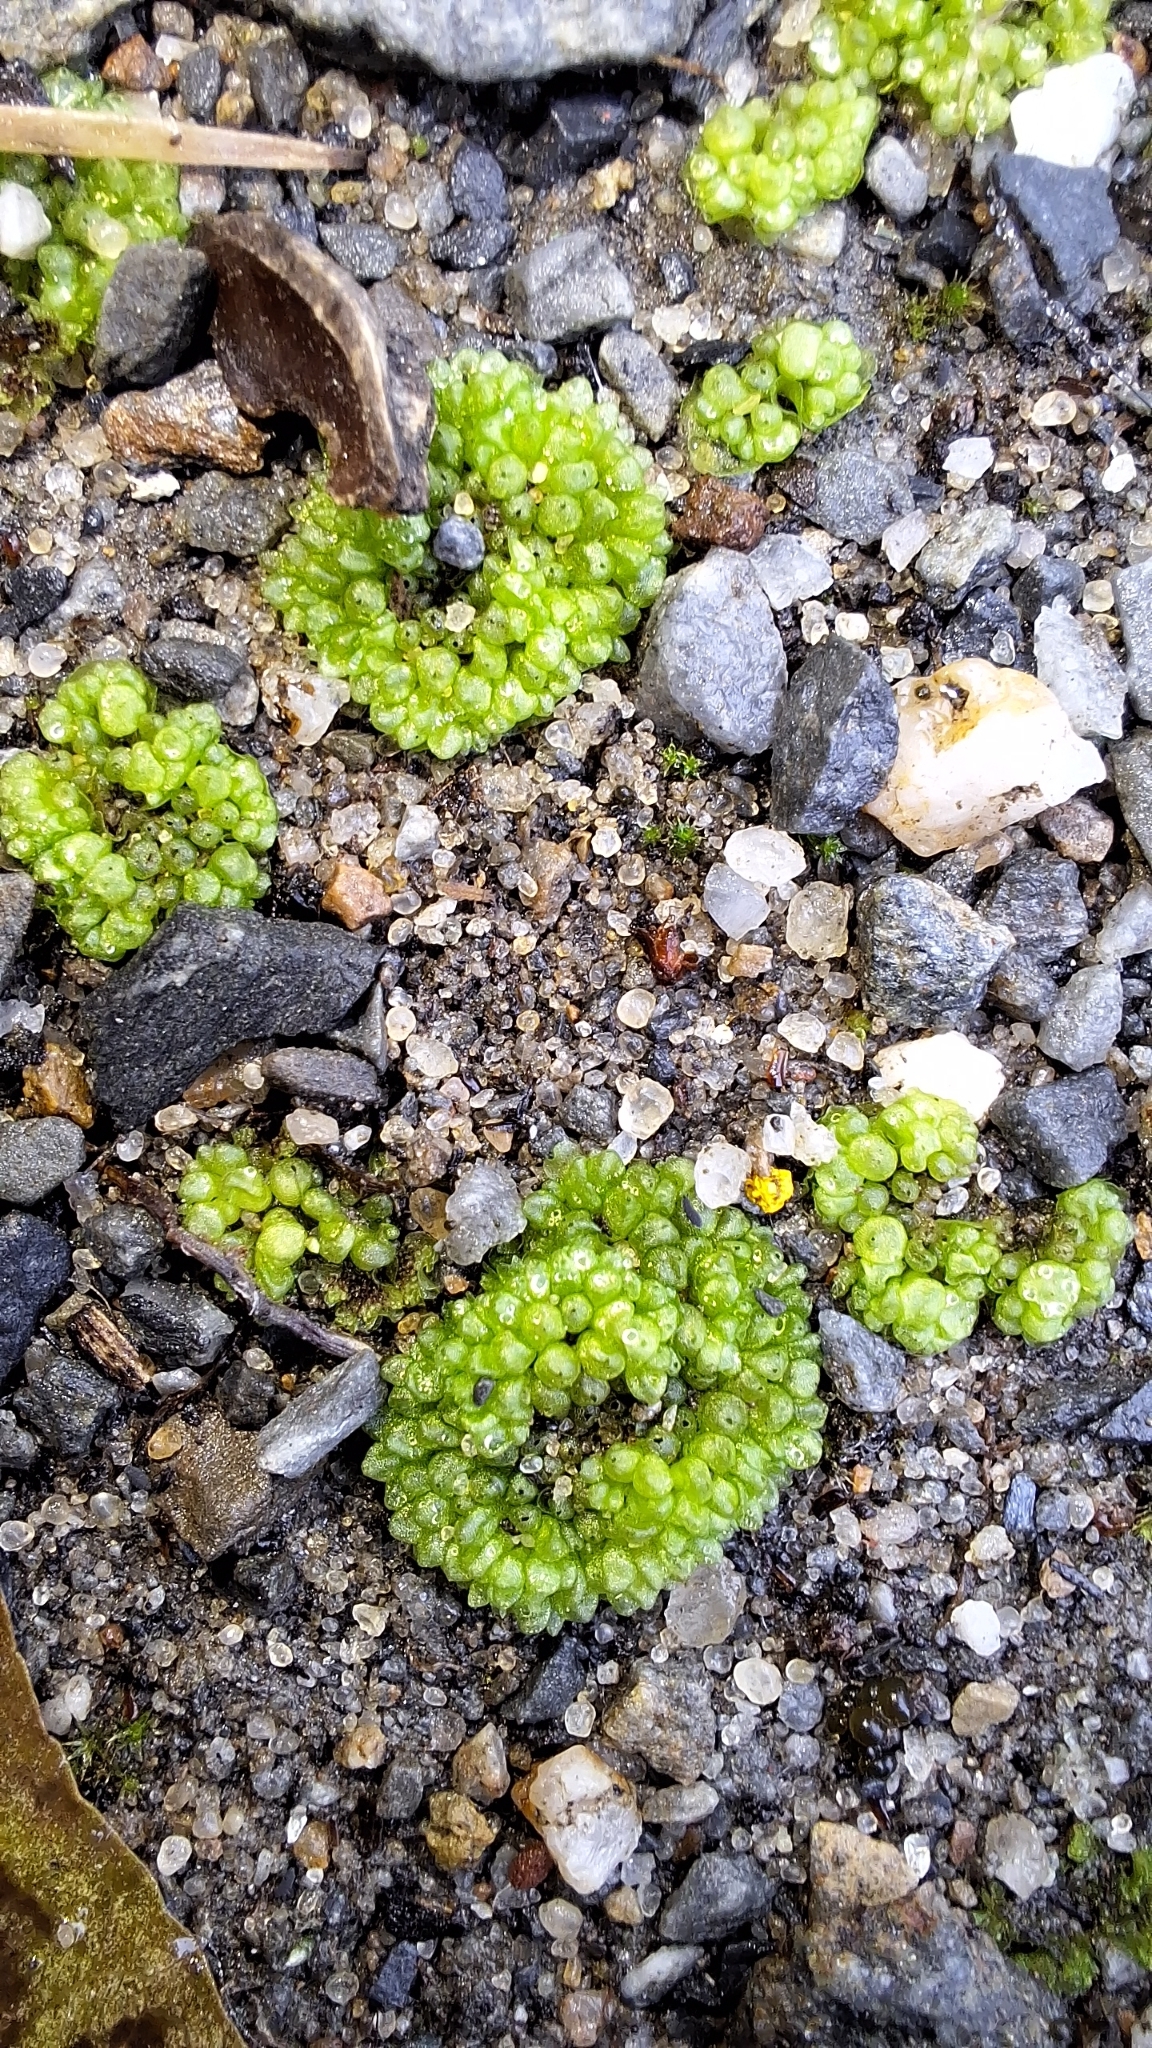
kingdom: Plantae
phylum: Marchantiophyta
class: Marchantiopsida
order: Sphaerocarpales
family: Sphaerocarpaceae
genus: Sphaerocarpos
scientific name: Sphaerocarpos texanus
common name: Texas balloonwort
